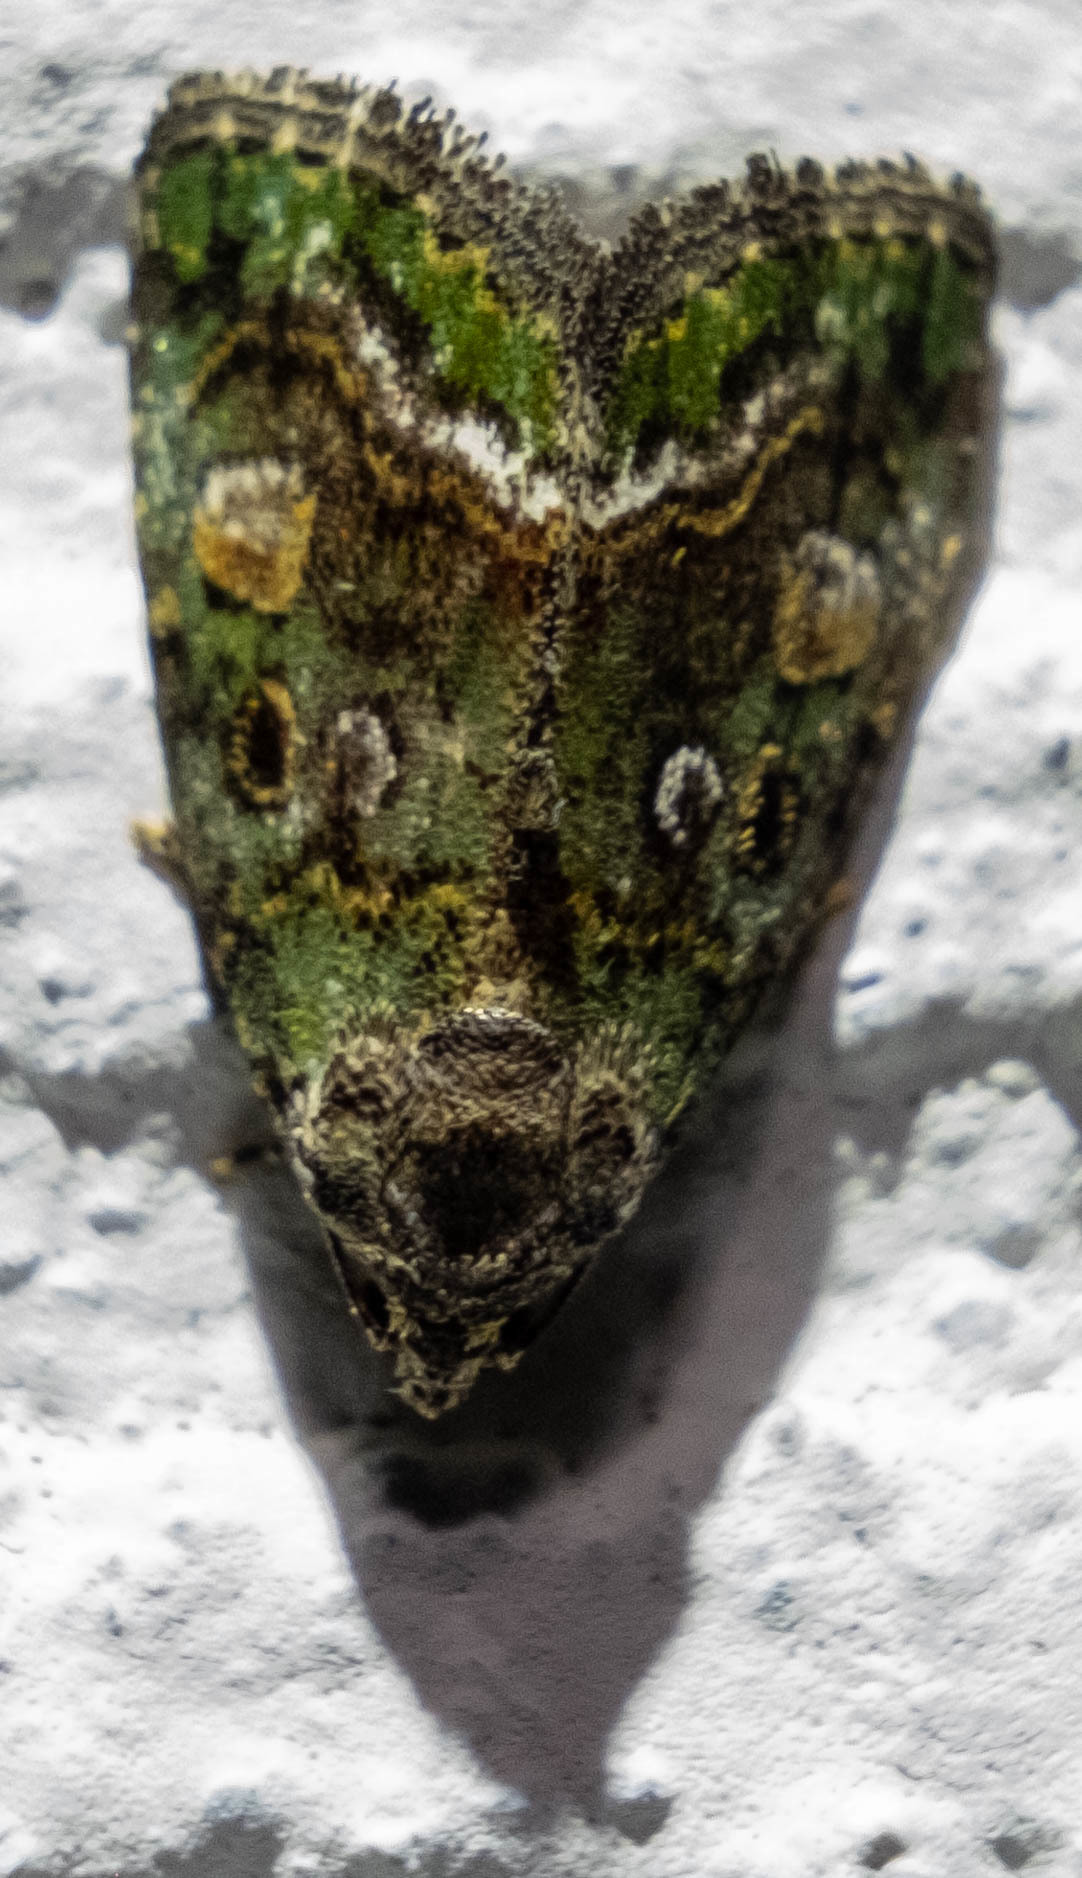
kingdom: Animalia
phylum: Arthropoda
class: Insecta
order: Lepidoptera
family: Noctuidae
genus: Lithacodia
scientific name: Lithacodia musta
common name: Small mossy glyph
